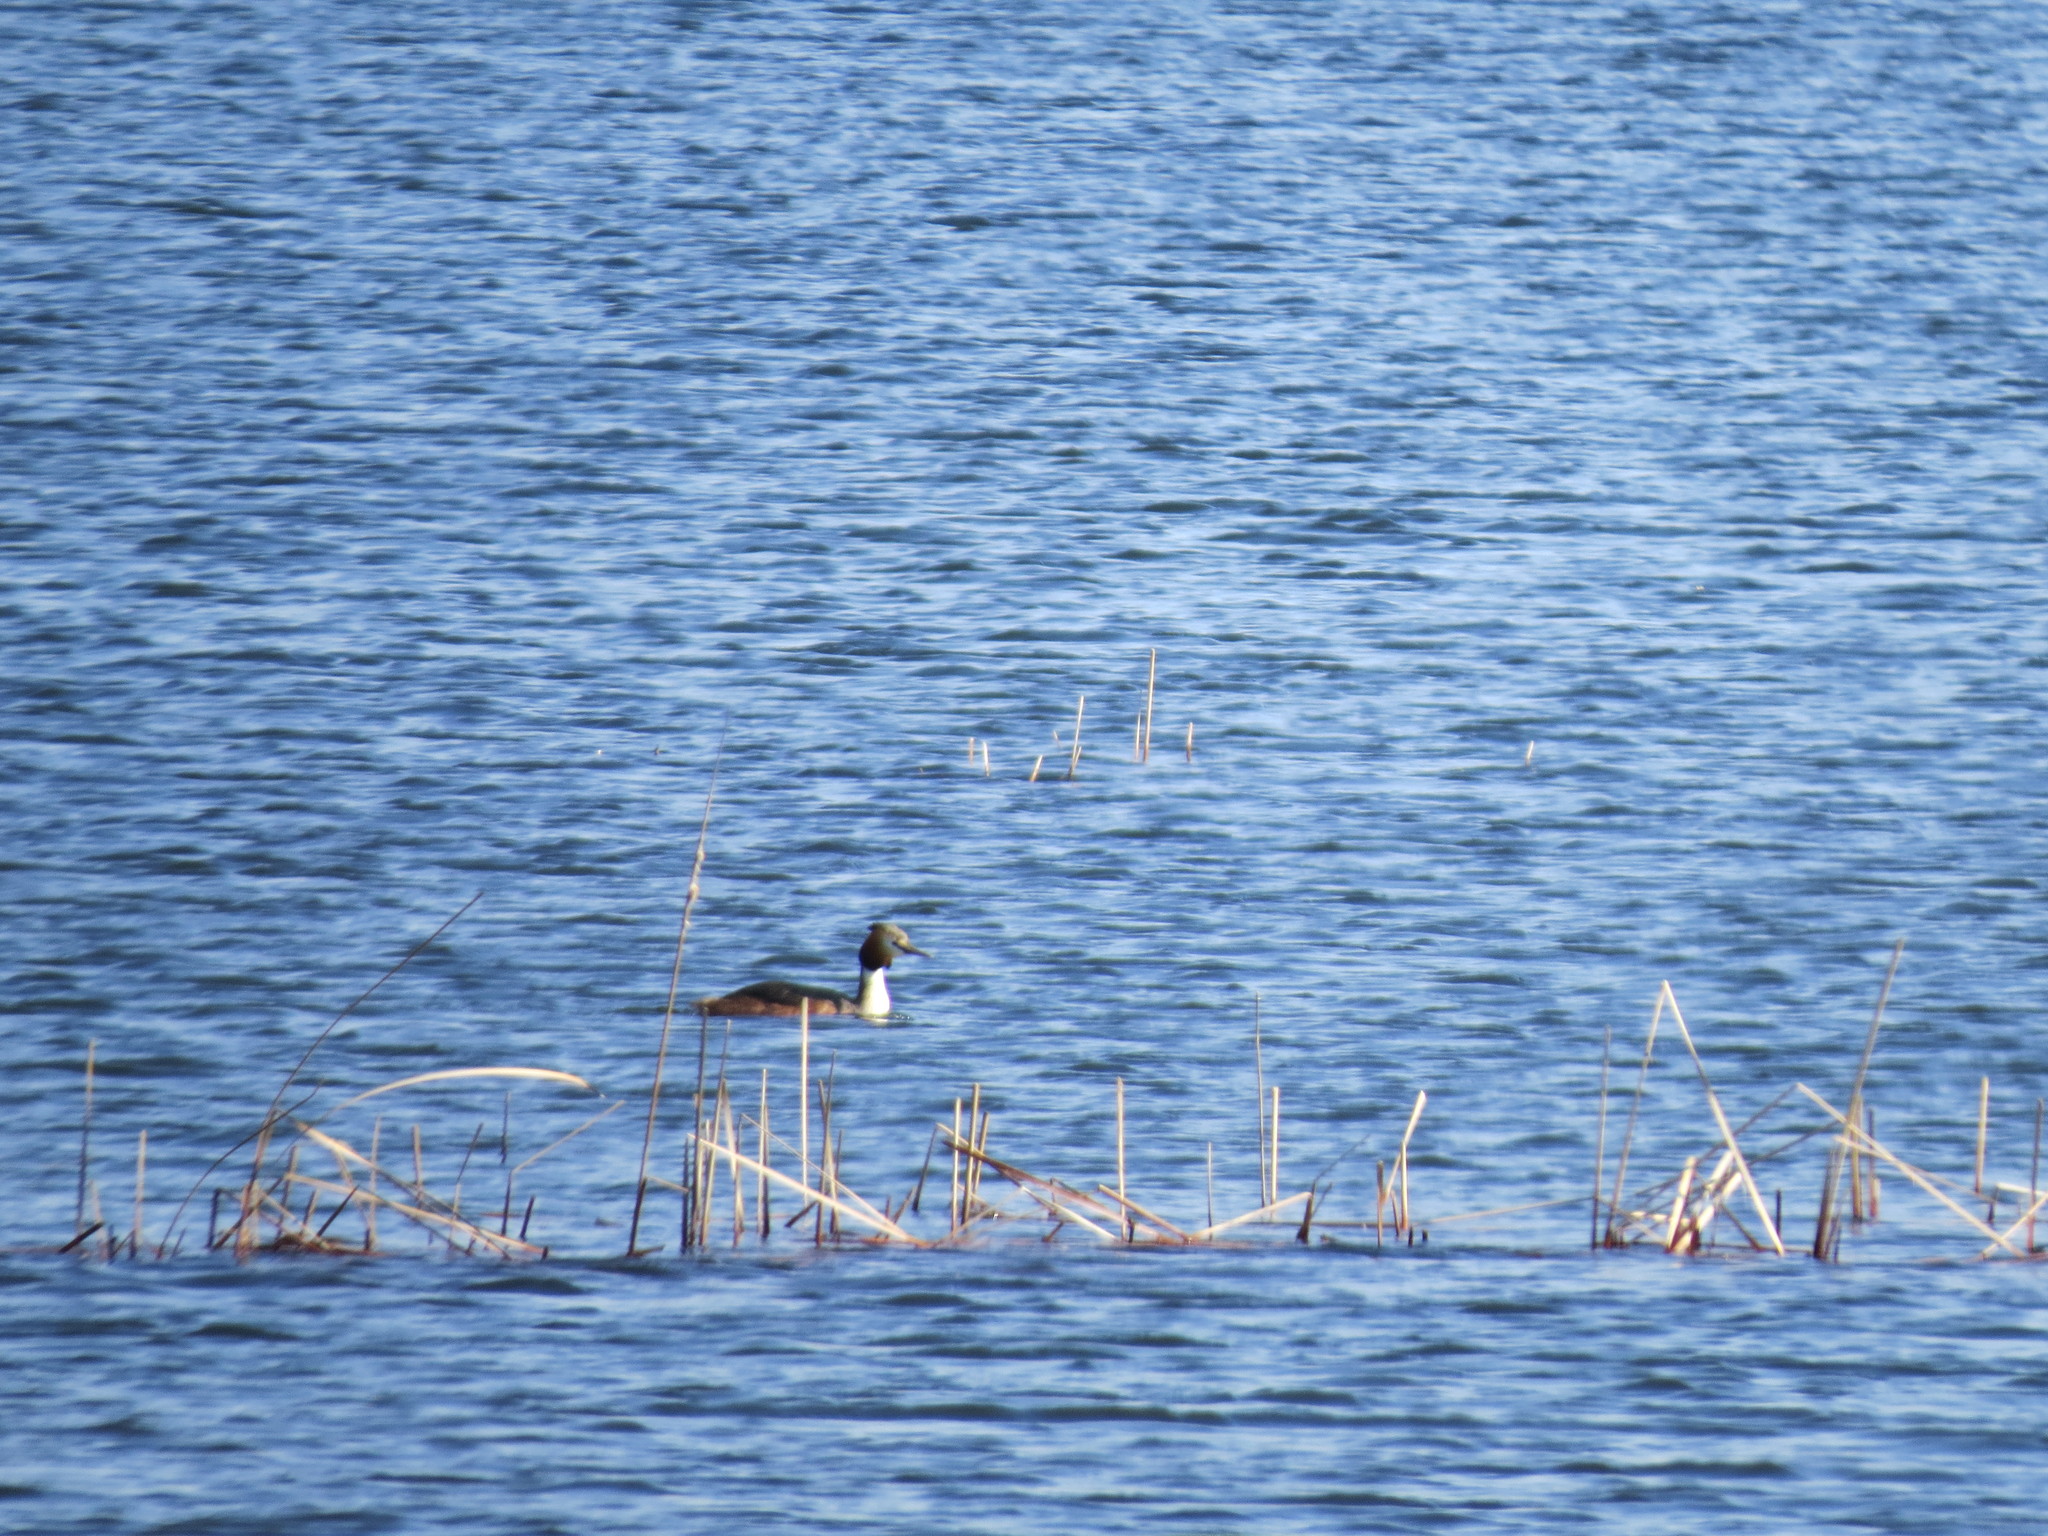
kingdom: Animalia
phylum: Chordata
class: Aves
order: Podicipediformes
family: Podicipedidae
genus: Podiceps
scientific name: Podiceps cristatus
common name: Great crested grebe
